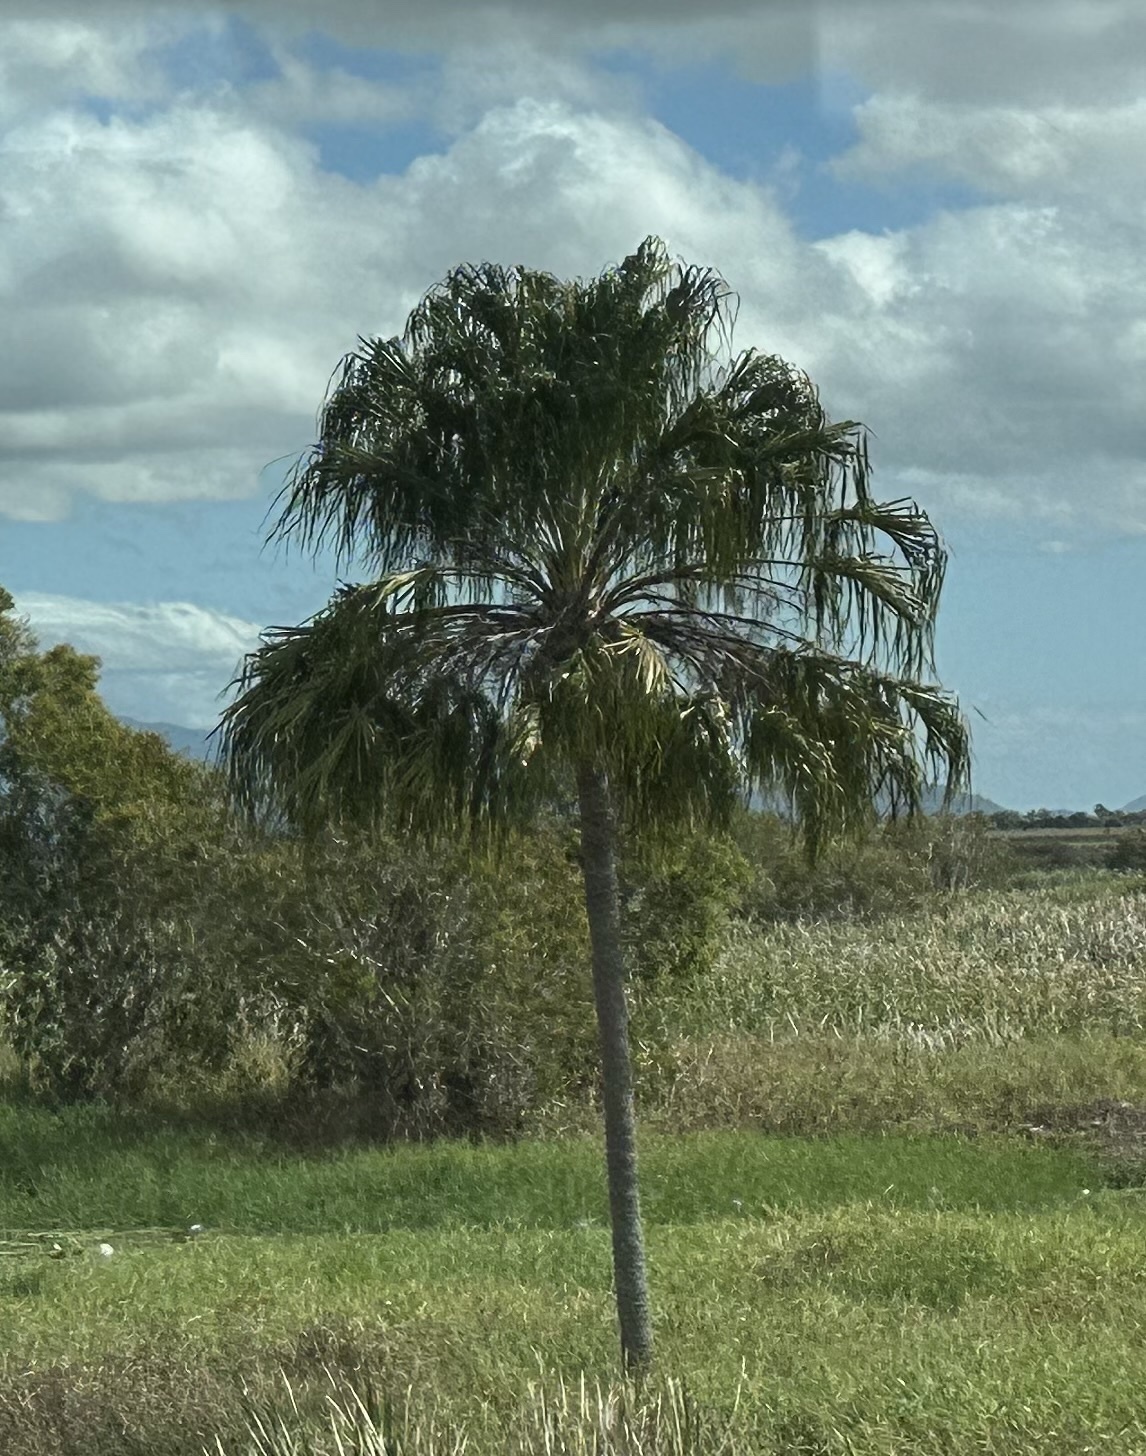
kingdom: Plantae
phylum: Tracheophyta
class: Liliopsida
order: Arecales
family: Arecaceae
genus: Livistona
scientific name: Livistona decora
